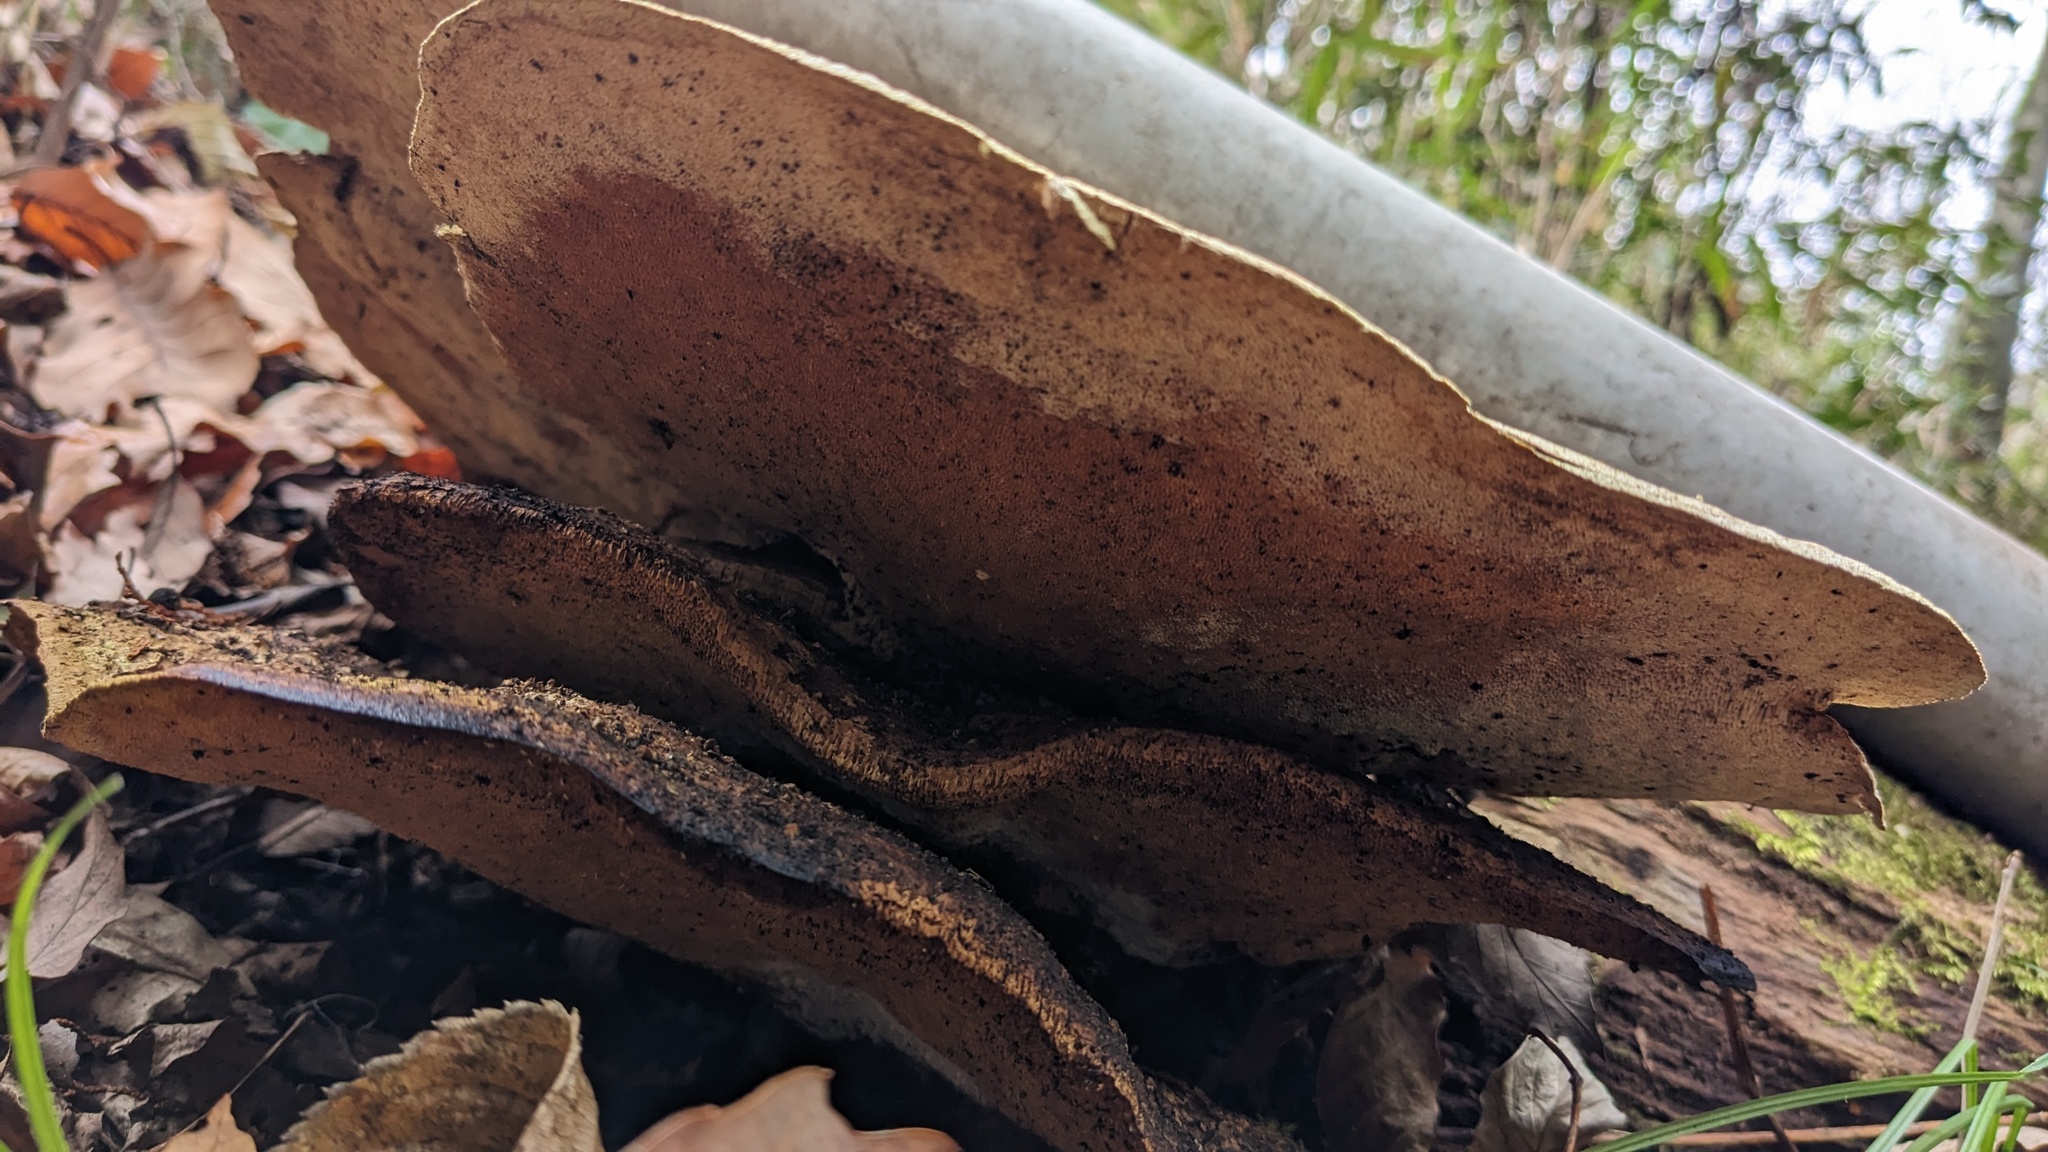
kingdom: Fungi
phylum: Basidiomycota
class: Agaricomycetes
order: Polyporales
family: Fomitopsidaceae
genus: Fomitopsis
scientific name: Fomitopsis
